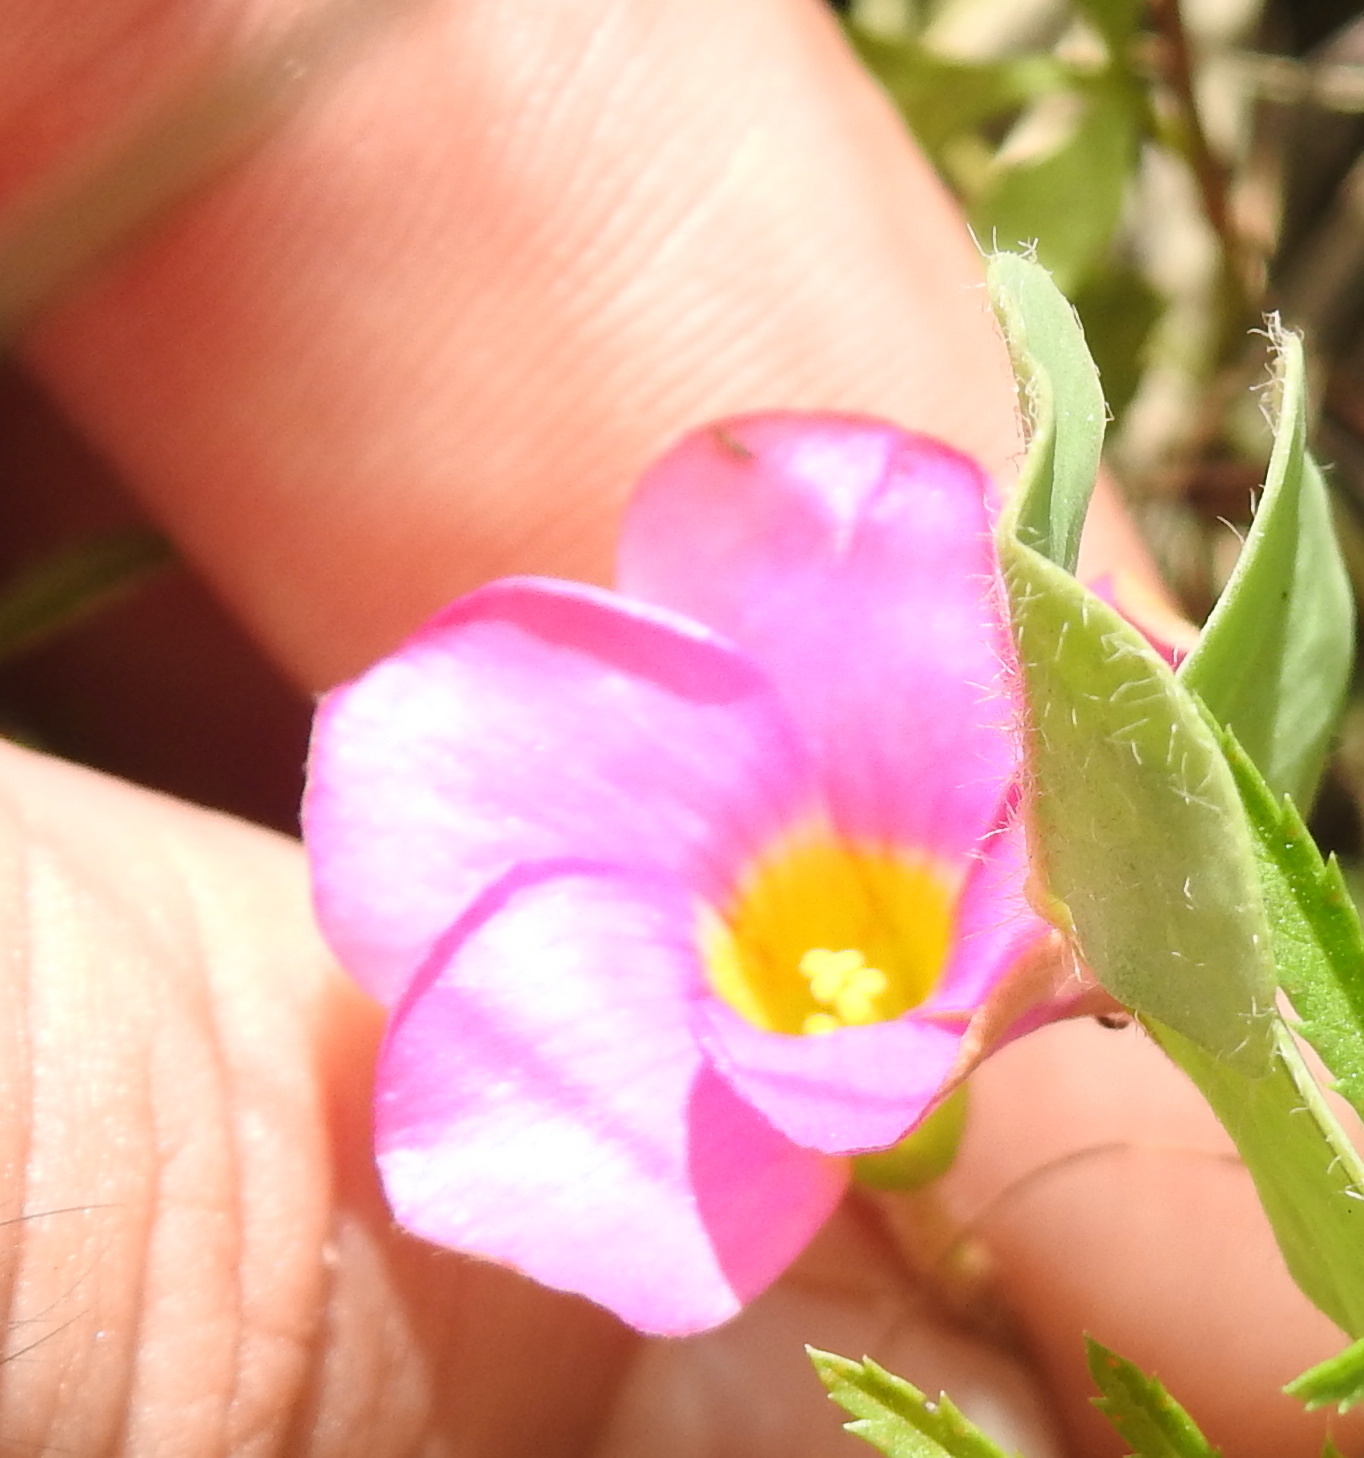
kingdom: Plantae
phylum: Tracheophyta
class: Magnoliopsida
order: Oxalidales
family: Oxalidaceae
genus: Oxalis
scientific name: Oxalis obliquifolia
